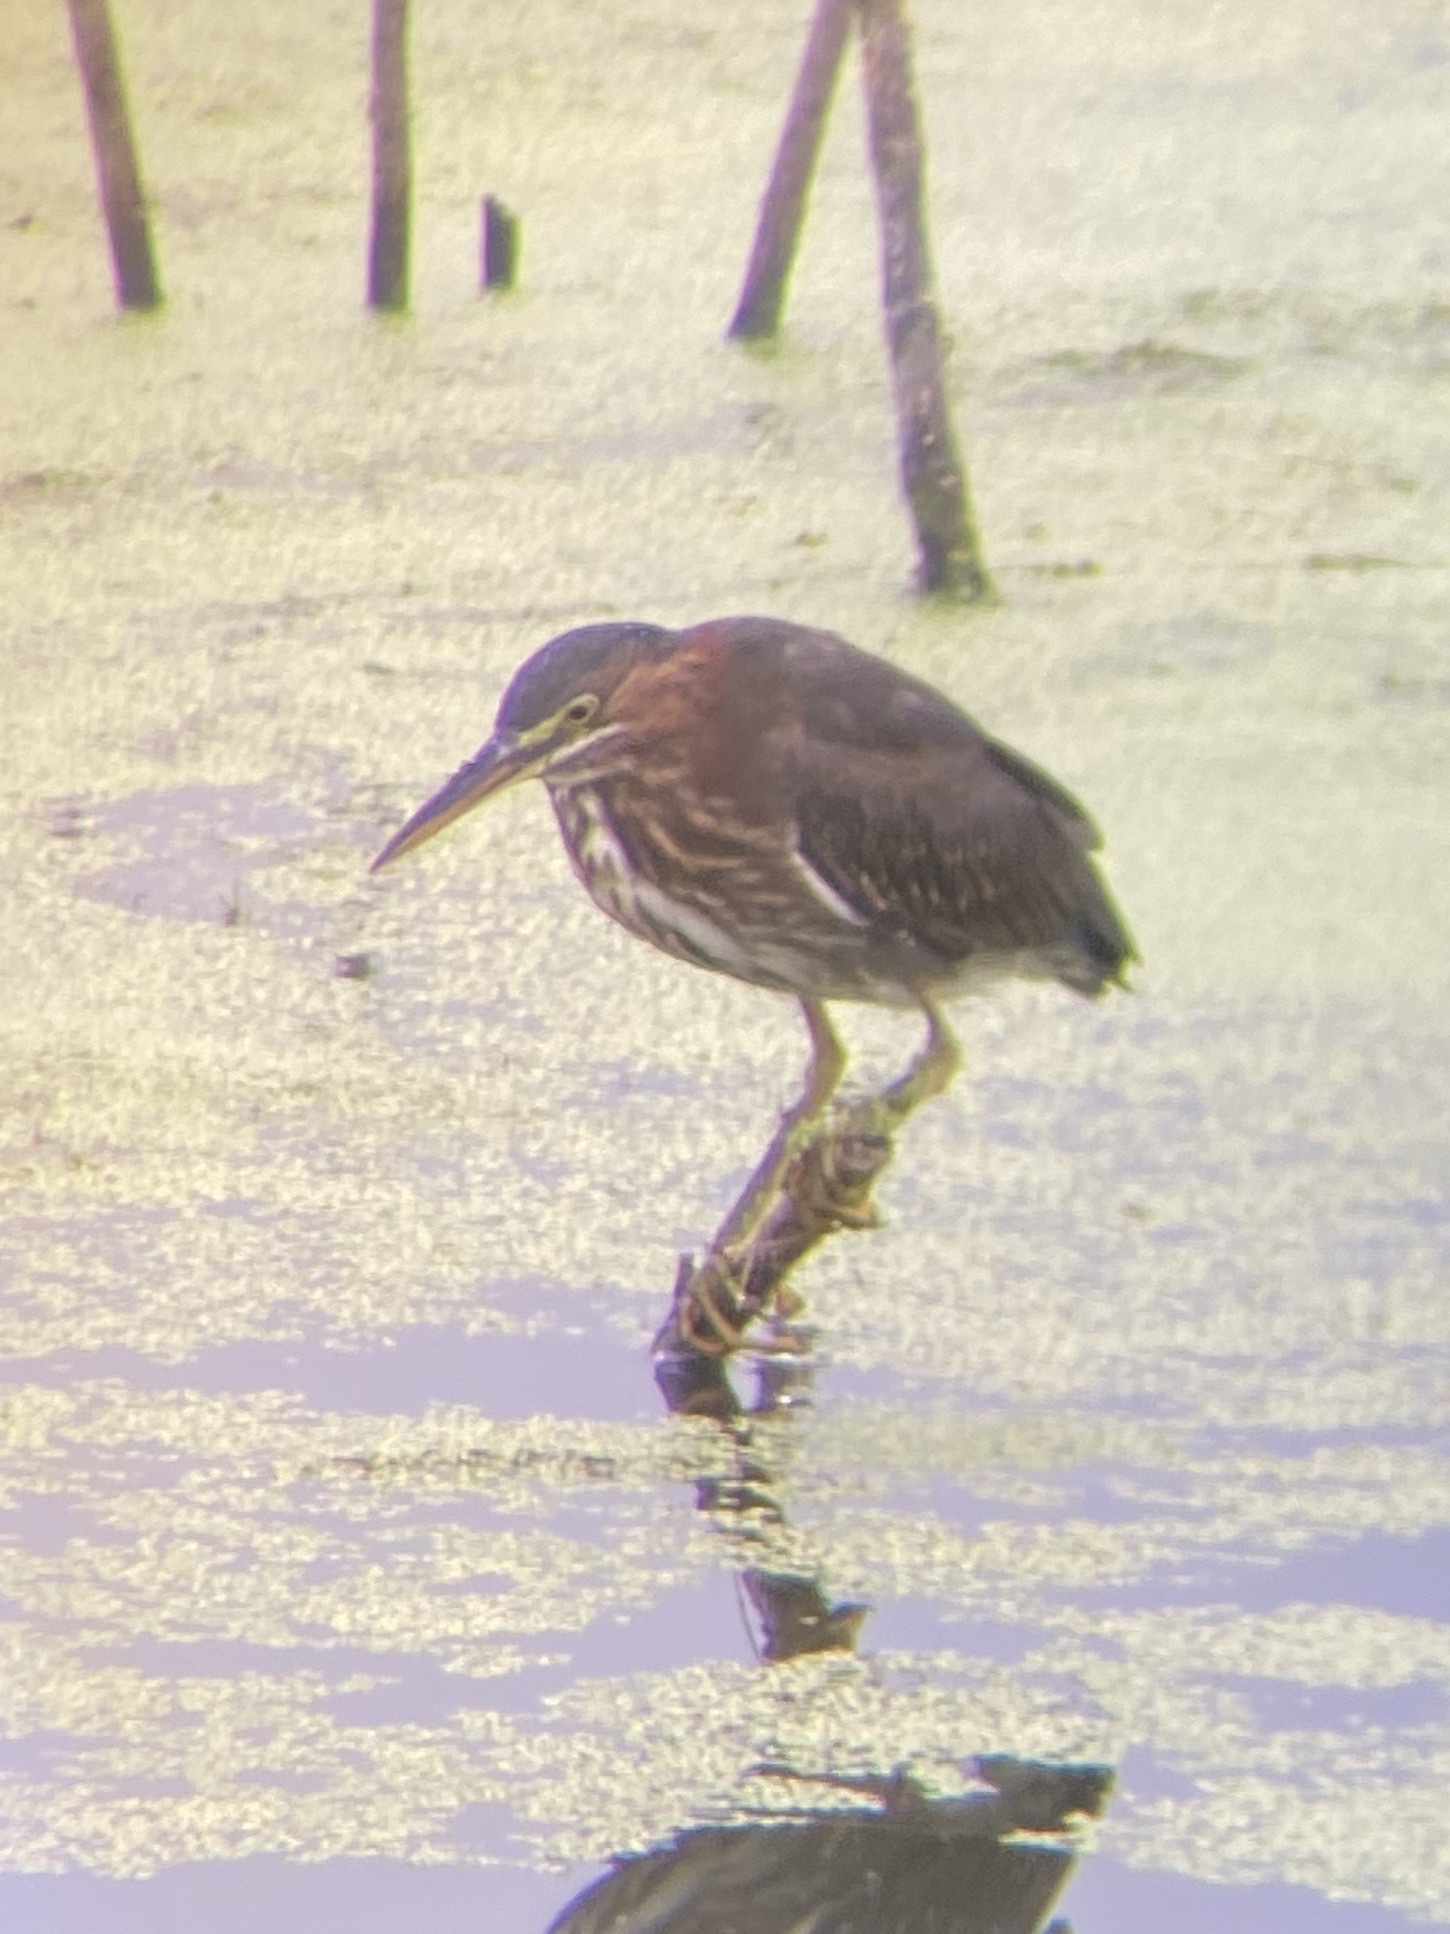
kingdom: Animalia
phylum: Chordata
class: Aves
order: Pelecaniformes
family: Ardeidae
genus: Butorides
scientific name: Butorides virescens
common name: Green heron
